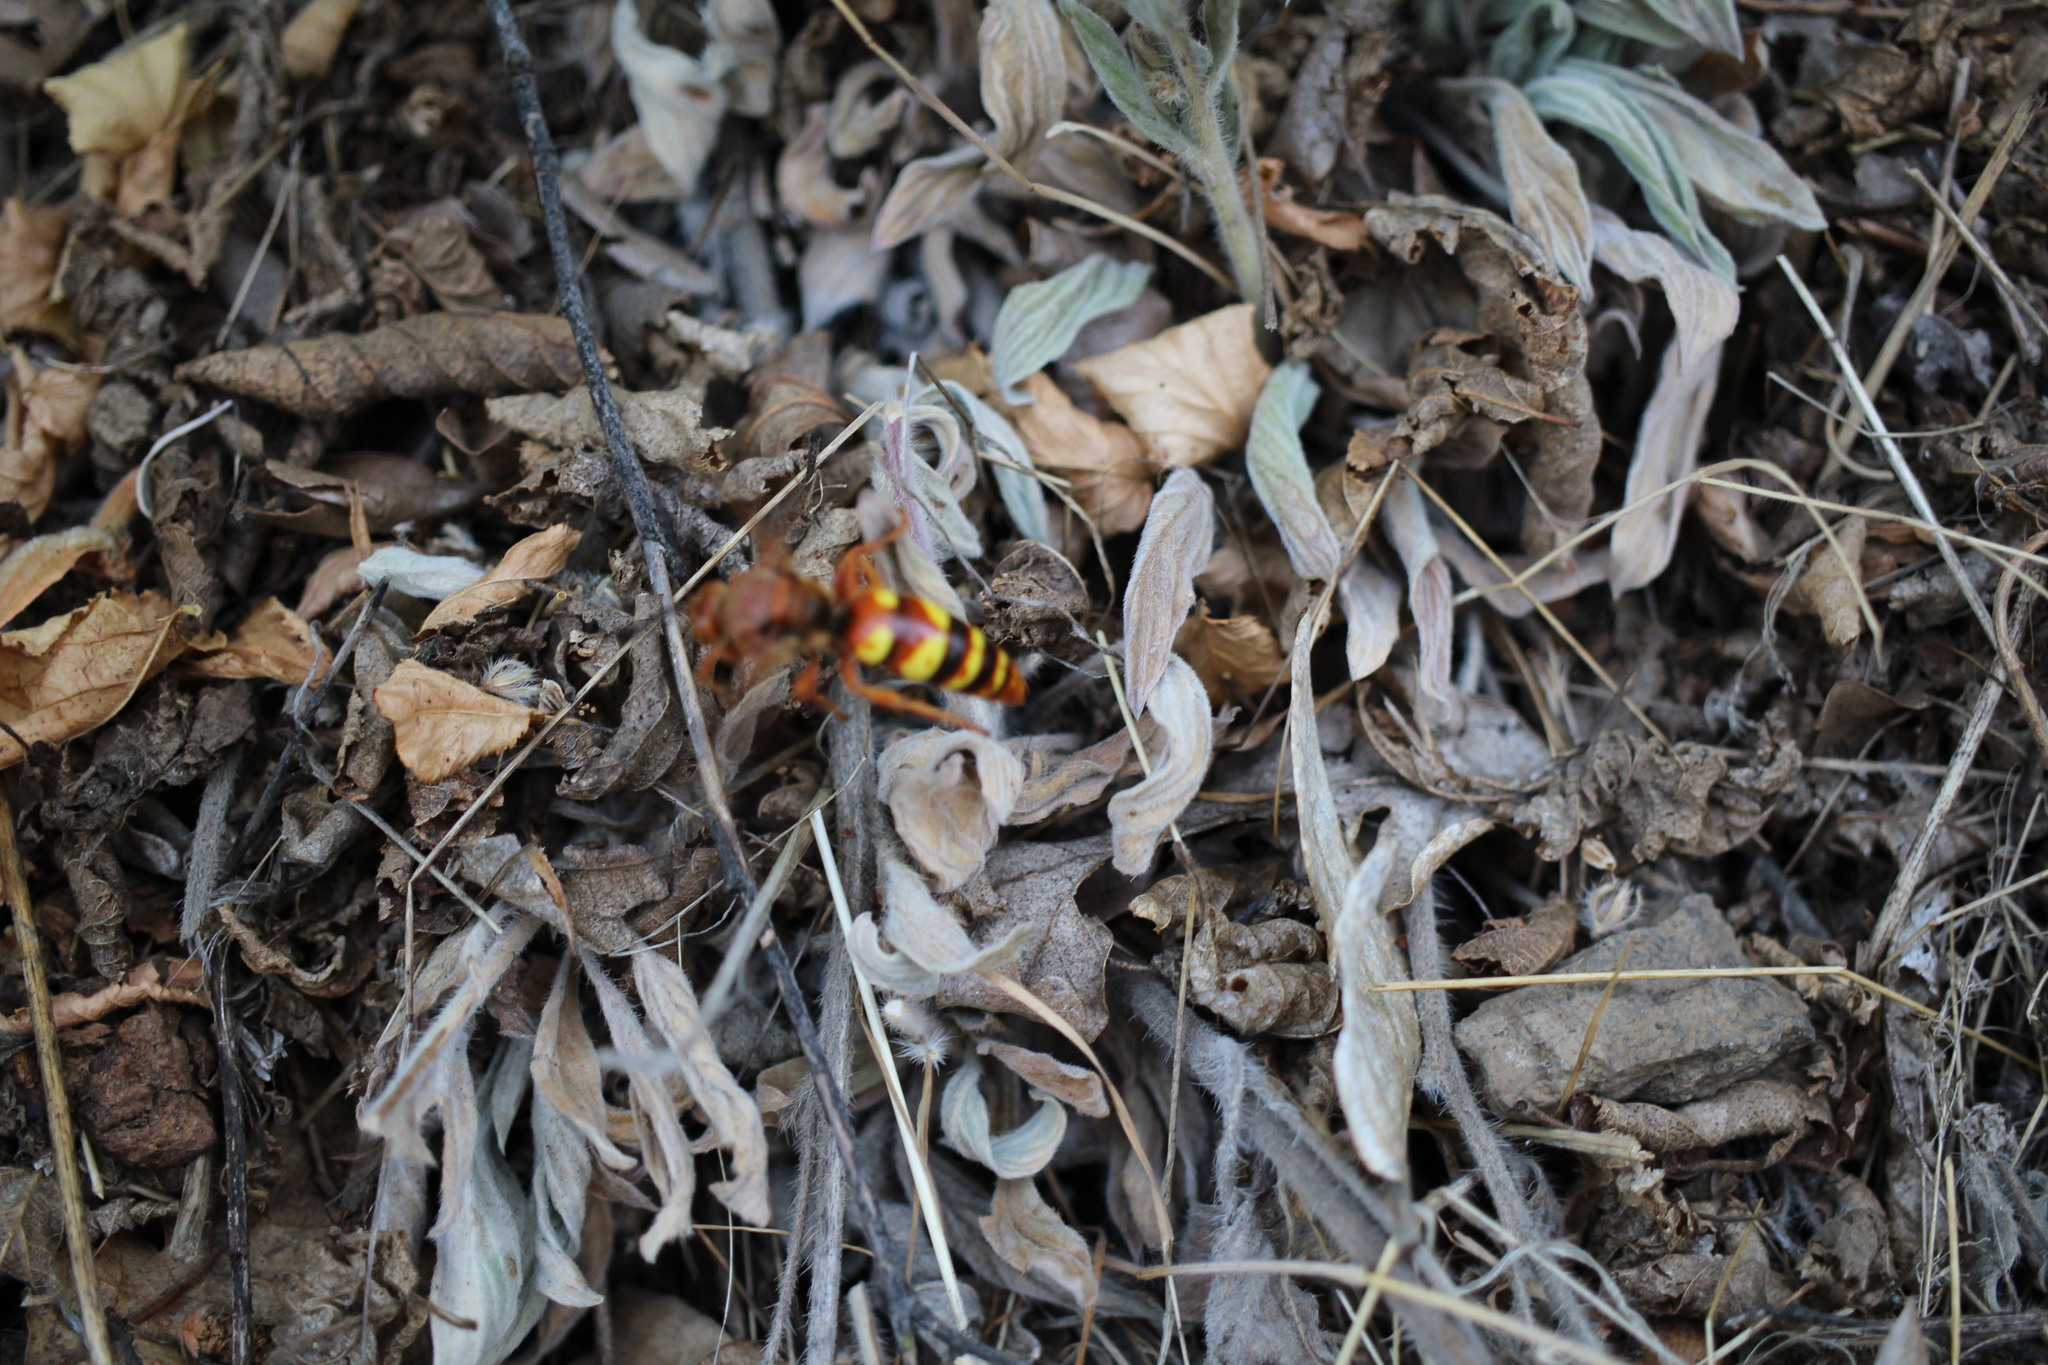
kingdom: Animalia
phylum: Arthropoda
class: Insecta
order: Hymenoptera
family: Crabronidae
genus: Sphecius
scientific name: Sphecius grandis
